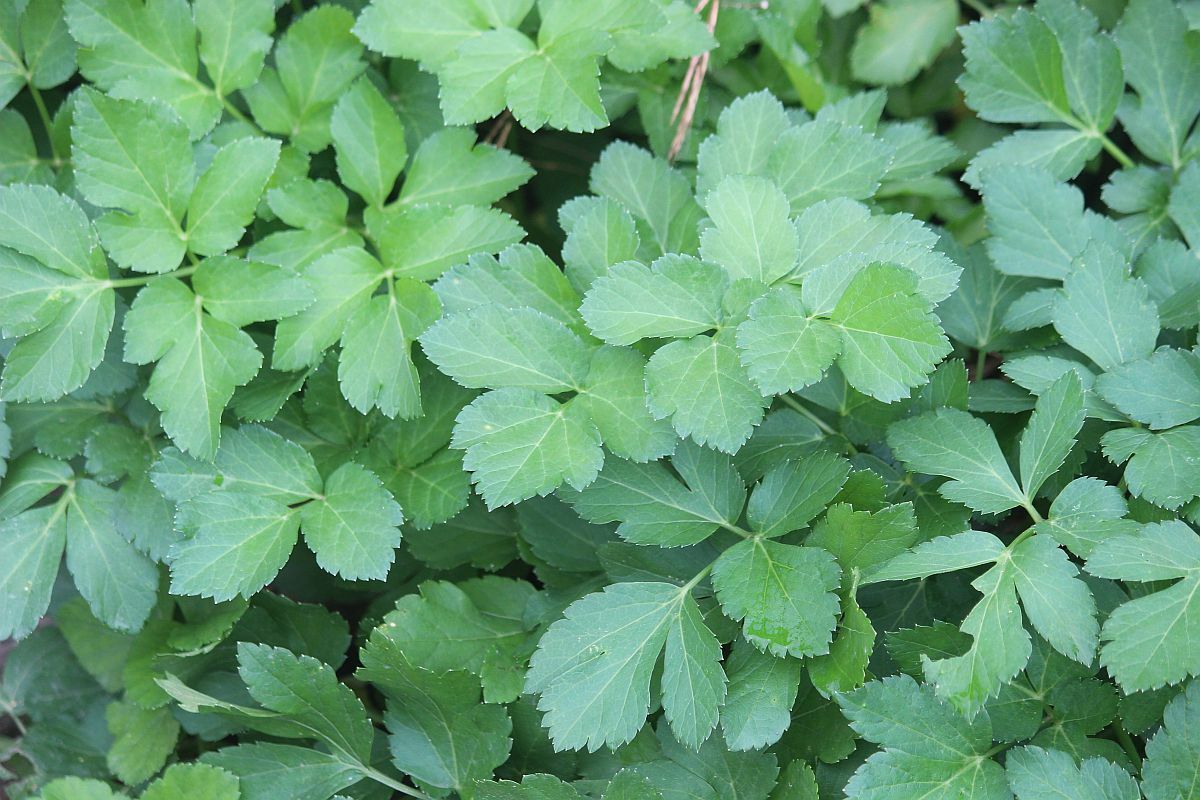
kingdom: Plantae
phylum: Tracheophyta
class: Magnoliopsida
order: Apiales
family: Apiaceae
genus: Smyrnium
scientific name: Smyrnium olusatrum
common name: Alexanders
